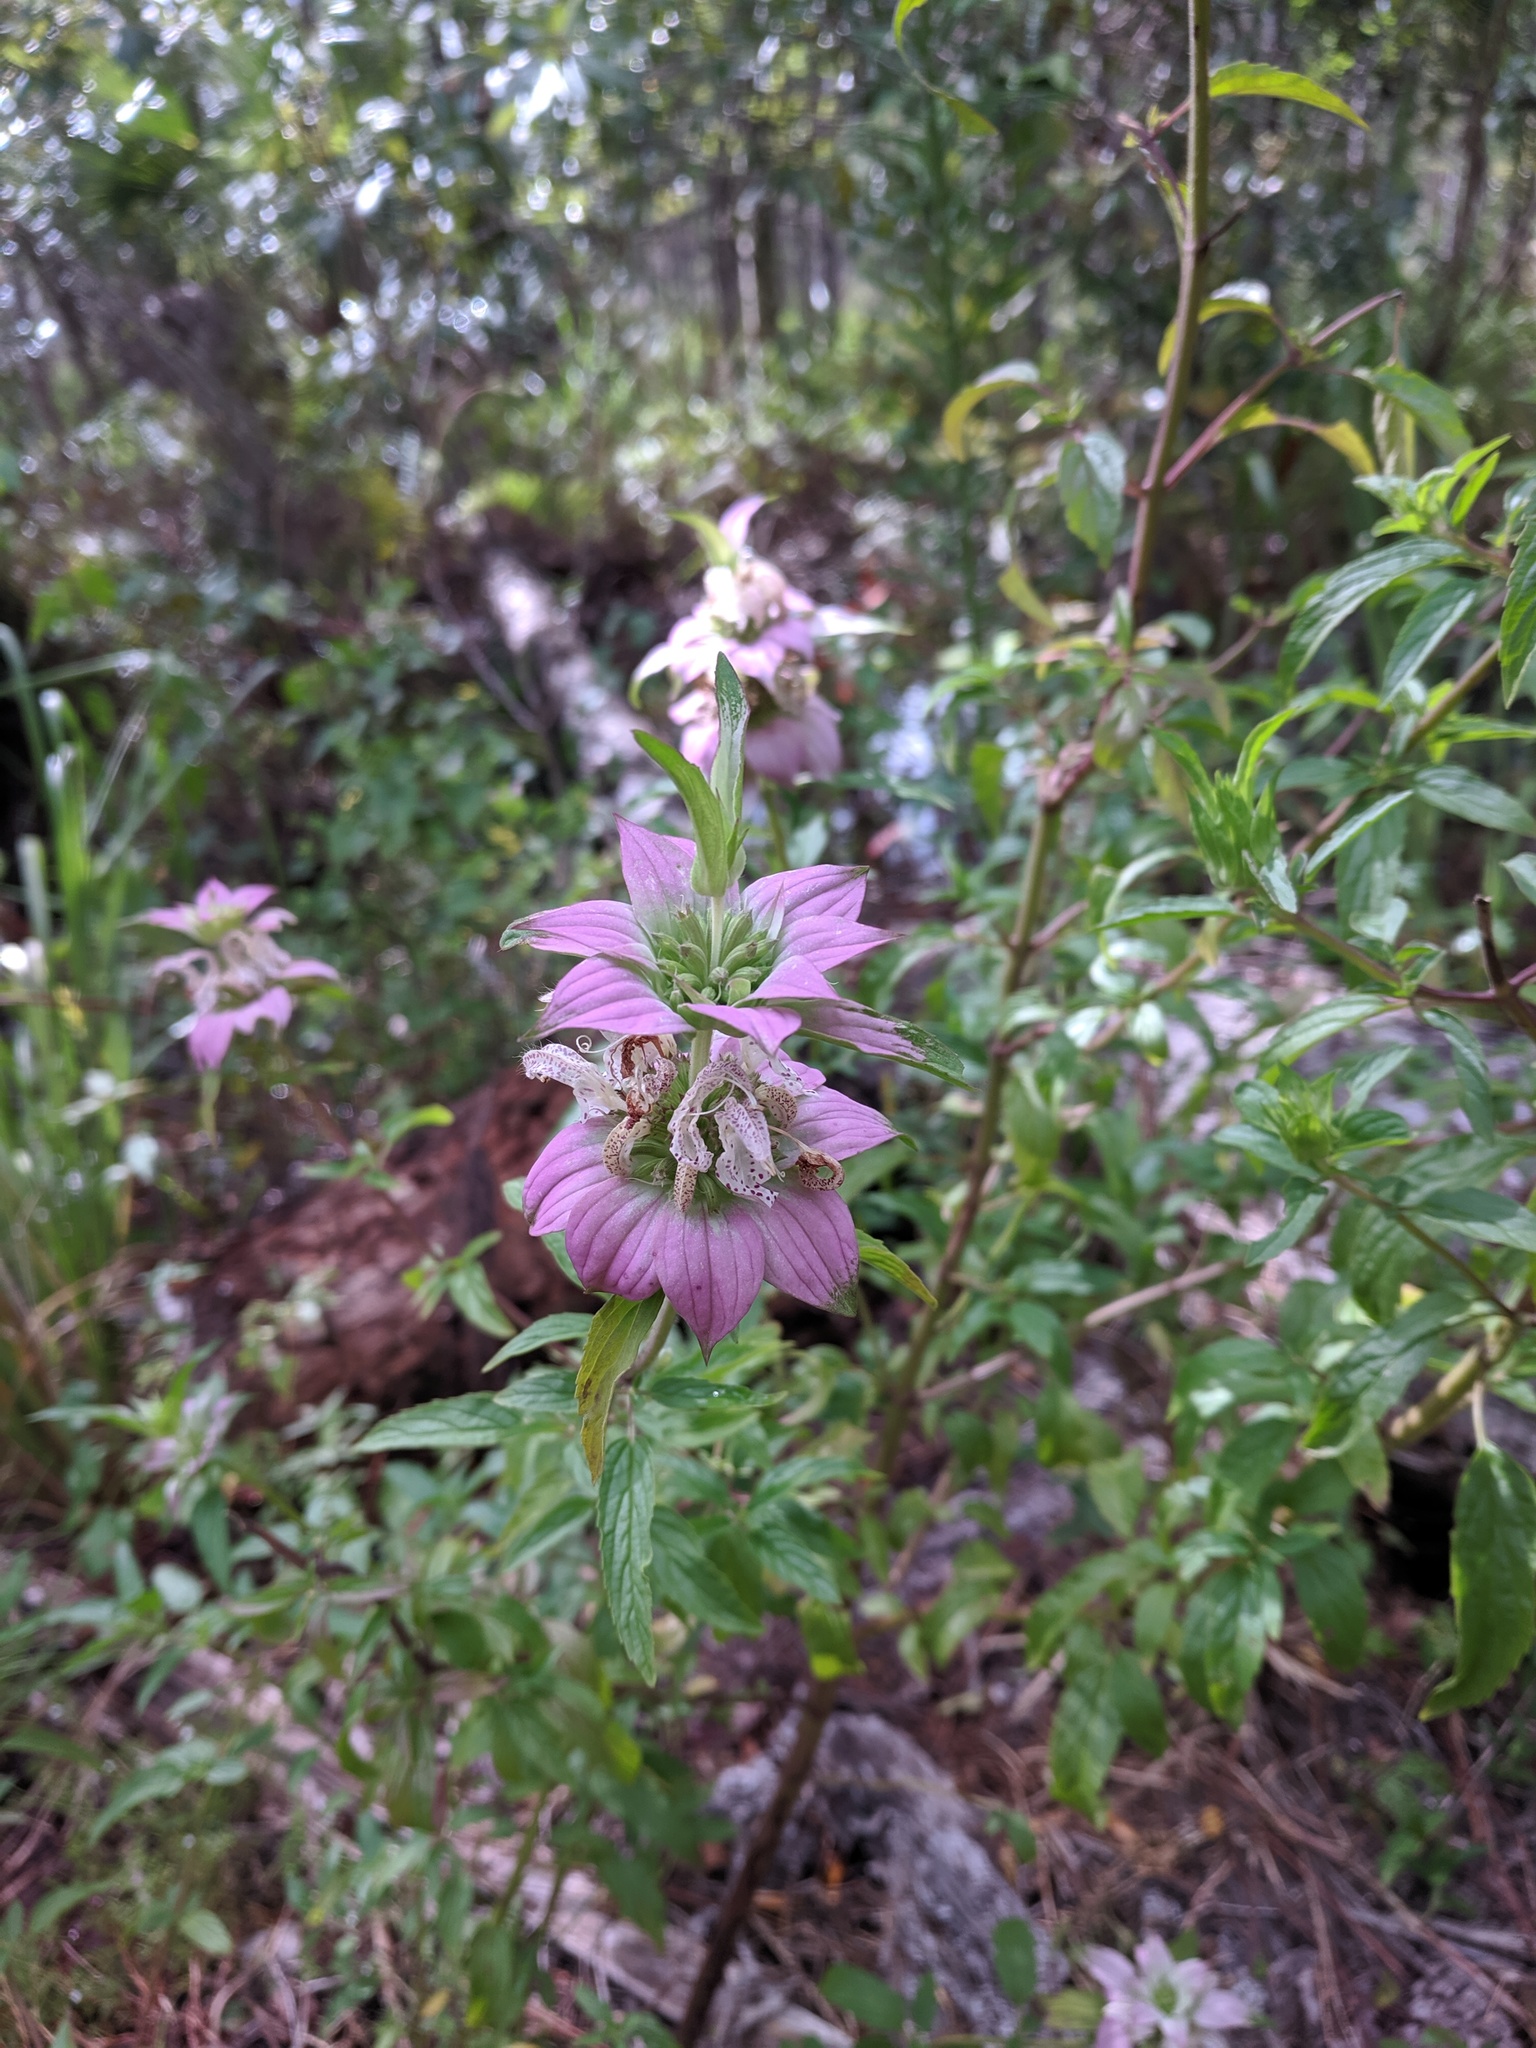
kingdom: Plantae
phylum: Tracheophyta
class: Magnoliopsida
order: Lamiales
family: Lamiaceae
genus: Monarda
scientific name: Monarda punctata
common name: Dotted monarda
